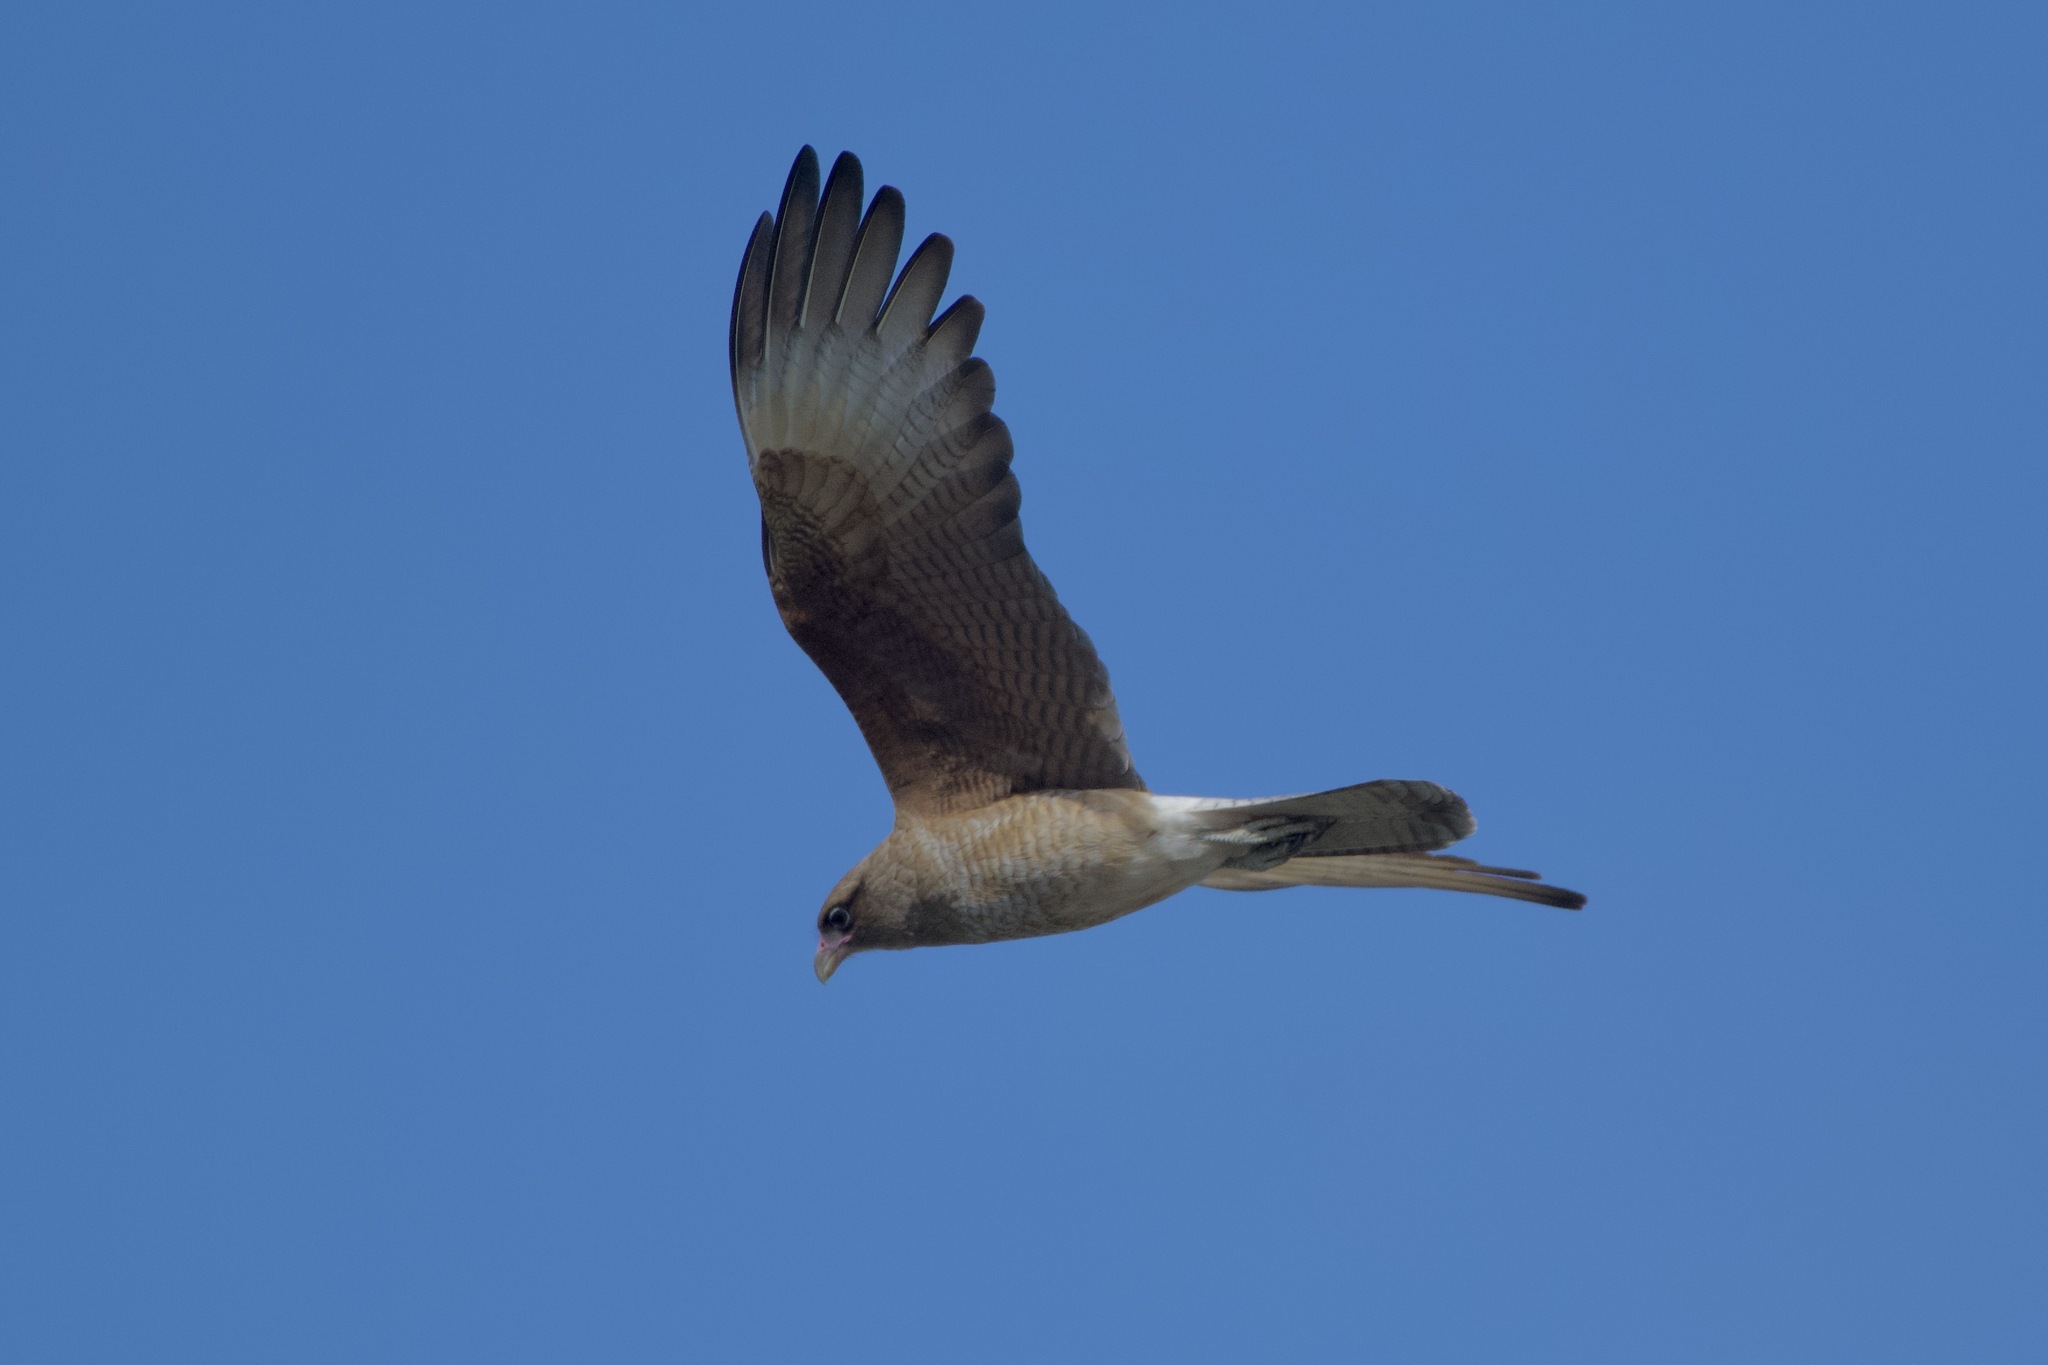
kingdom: Animalia
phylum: Chordata
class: Aves
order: Falconiformes
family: Falconidae
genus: Daptrius
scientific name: Daptrius
